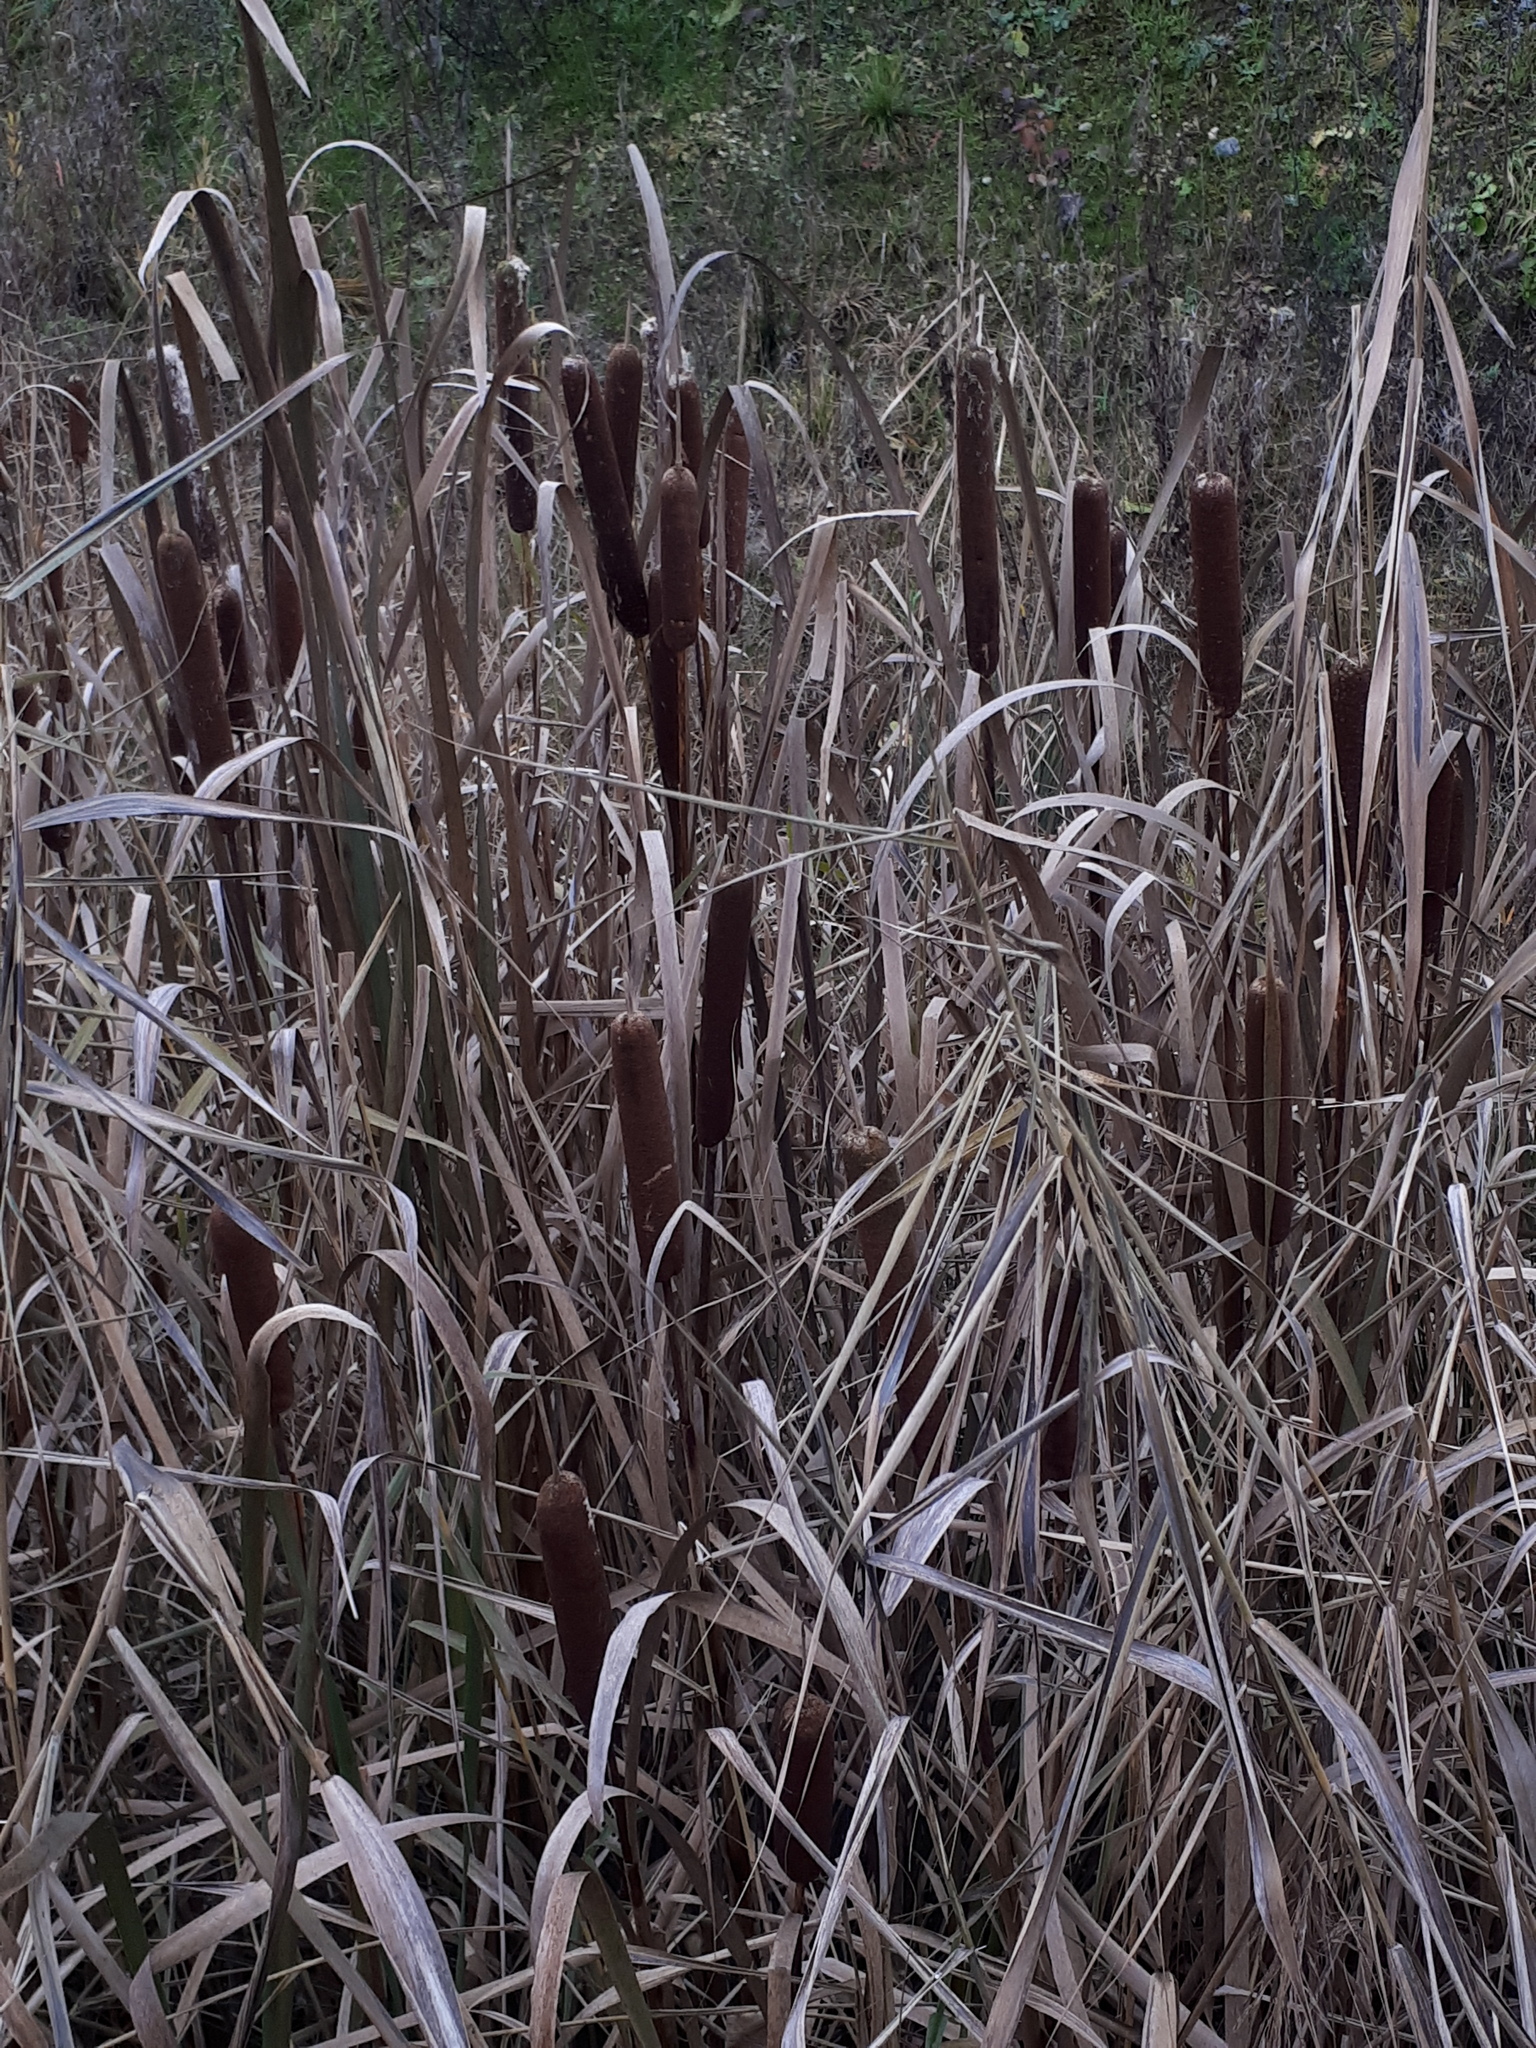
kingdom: Plantae
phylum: Tracheophyta
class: Liliopsida
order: Poales
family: Typhaceae
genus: Typha
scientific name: Typha latifolia
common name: Broadleaf cattail
